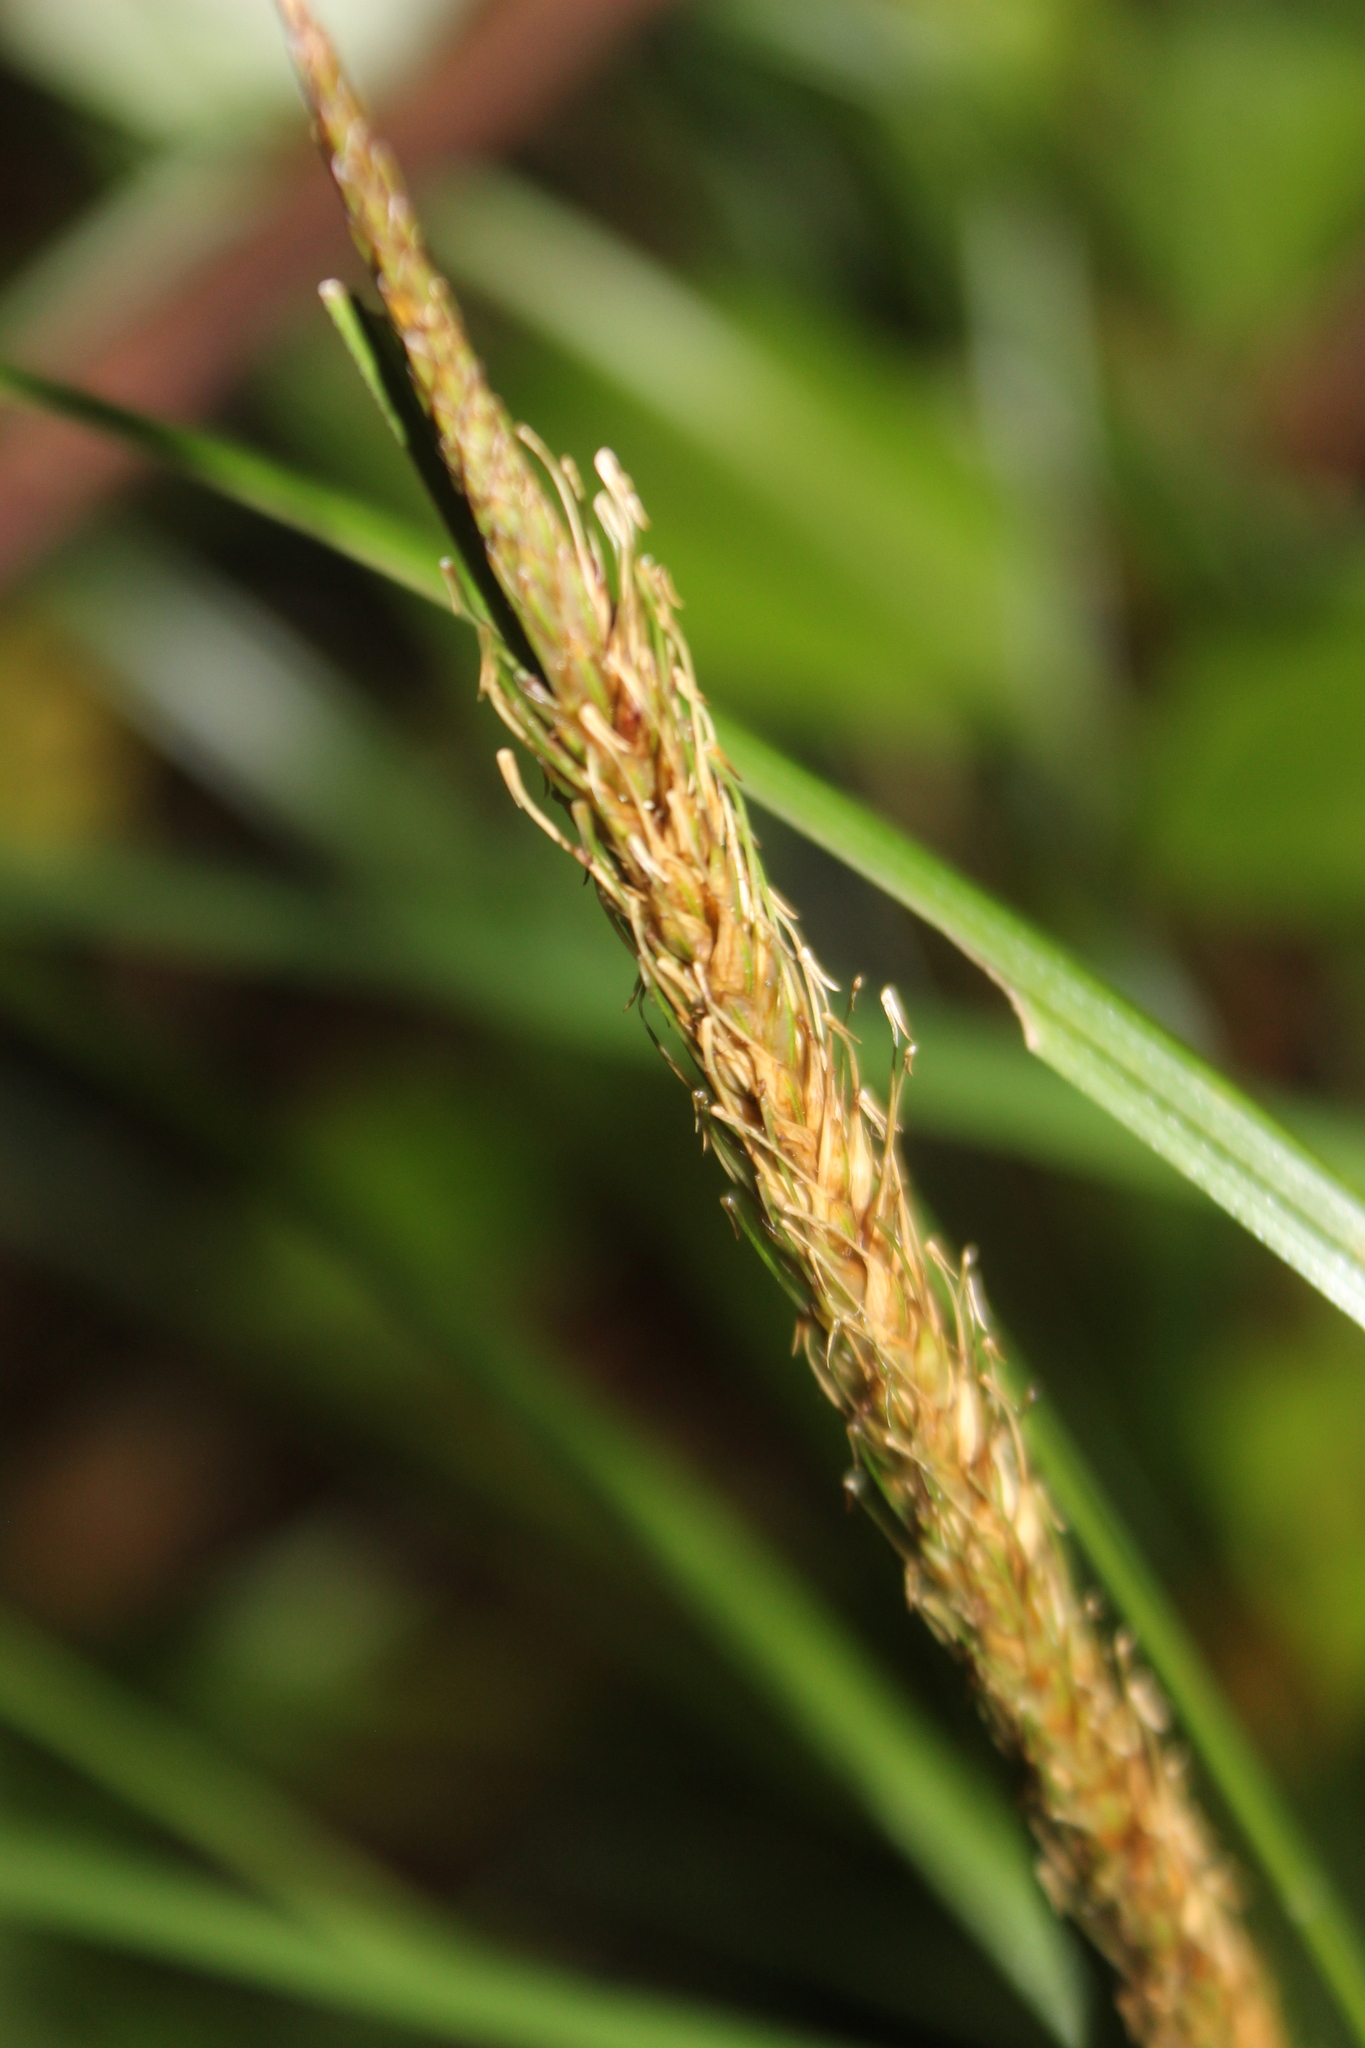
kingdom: Plantae
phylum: Tracheophyta
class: Liliopsida
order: Poales
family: Cyperaceae
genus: Carex
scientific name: Carex uncinata
